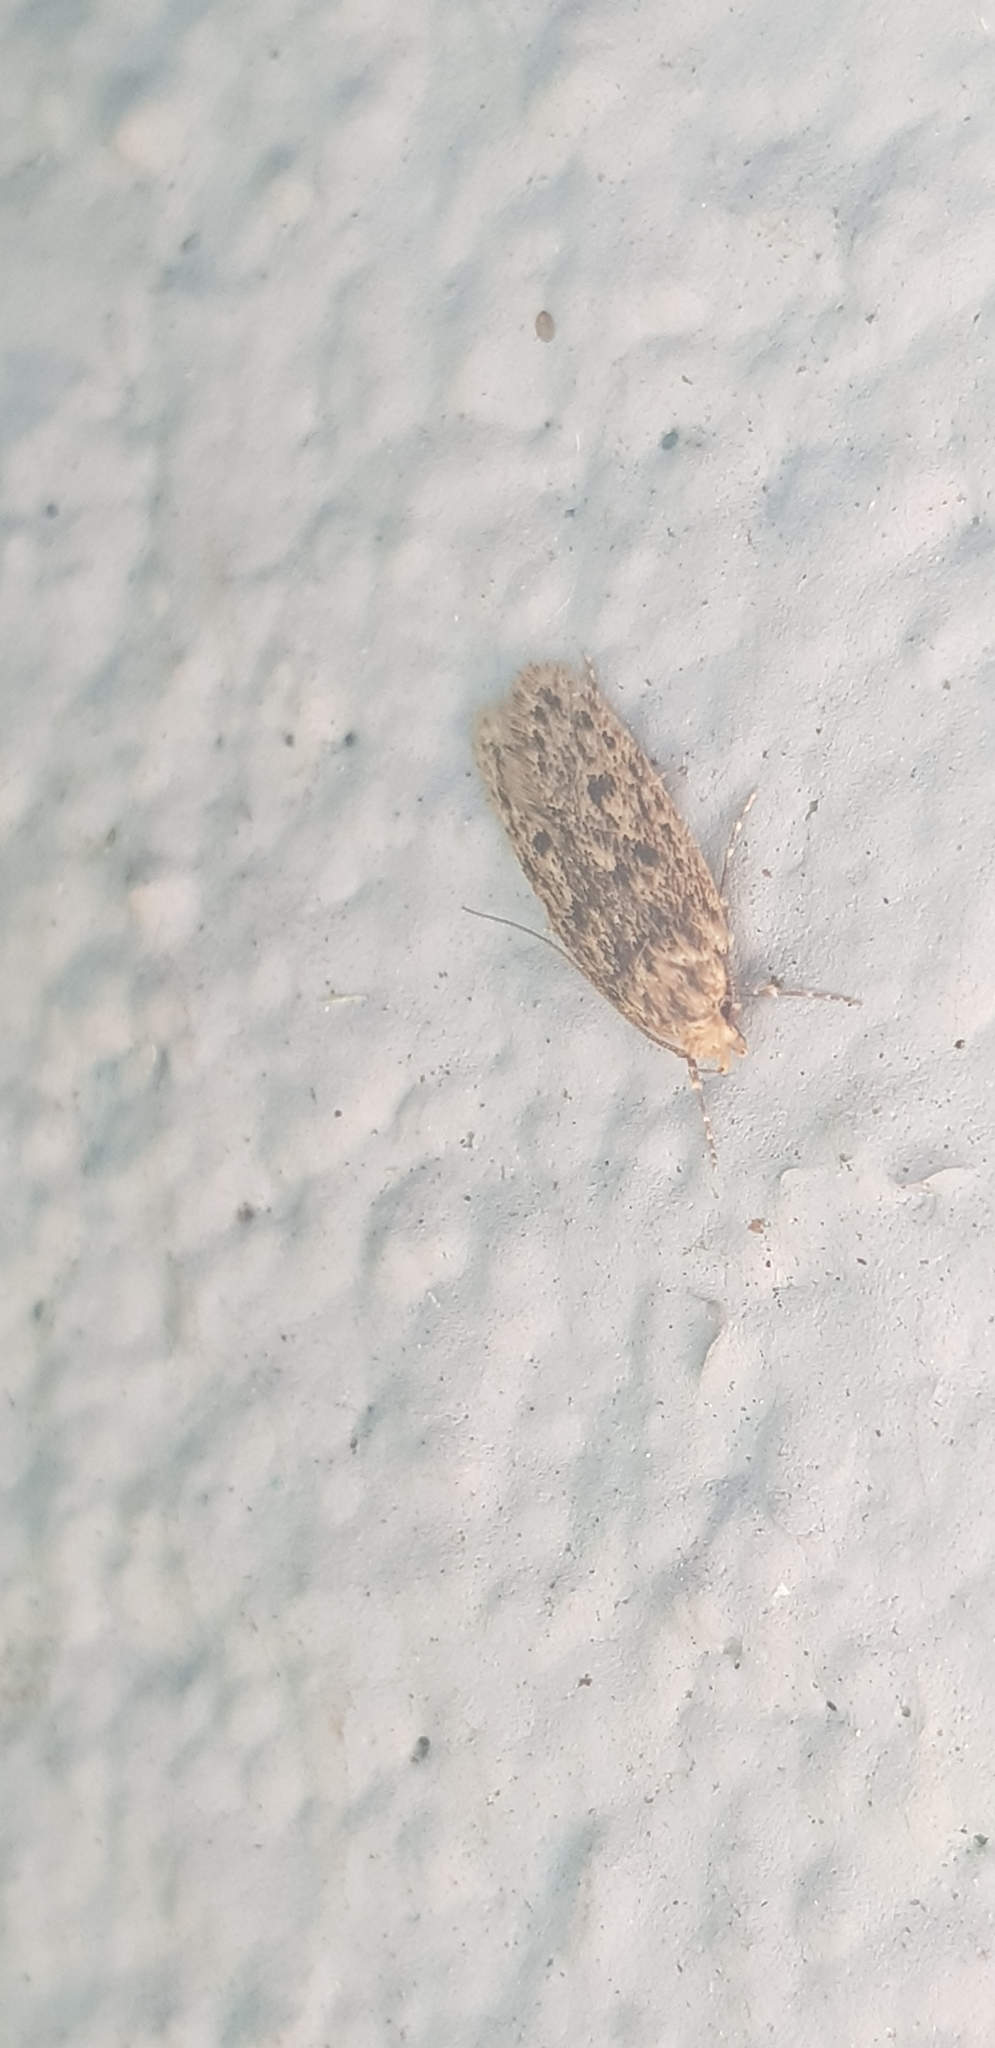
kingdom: Animalia
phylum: Arthropoda
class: Insecta
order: Lepidoptera
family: Oecophoridae
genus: Hofmannophila
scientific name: Hofmannophila pseudospretella
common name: Brown house moth
